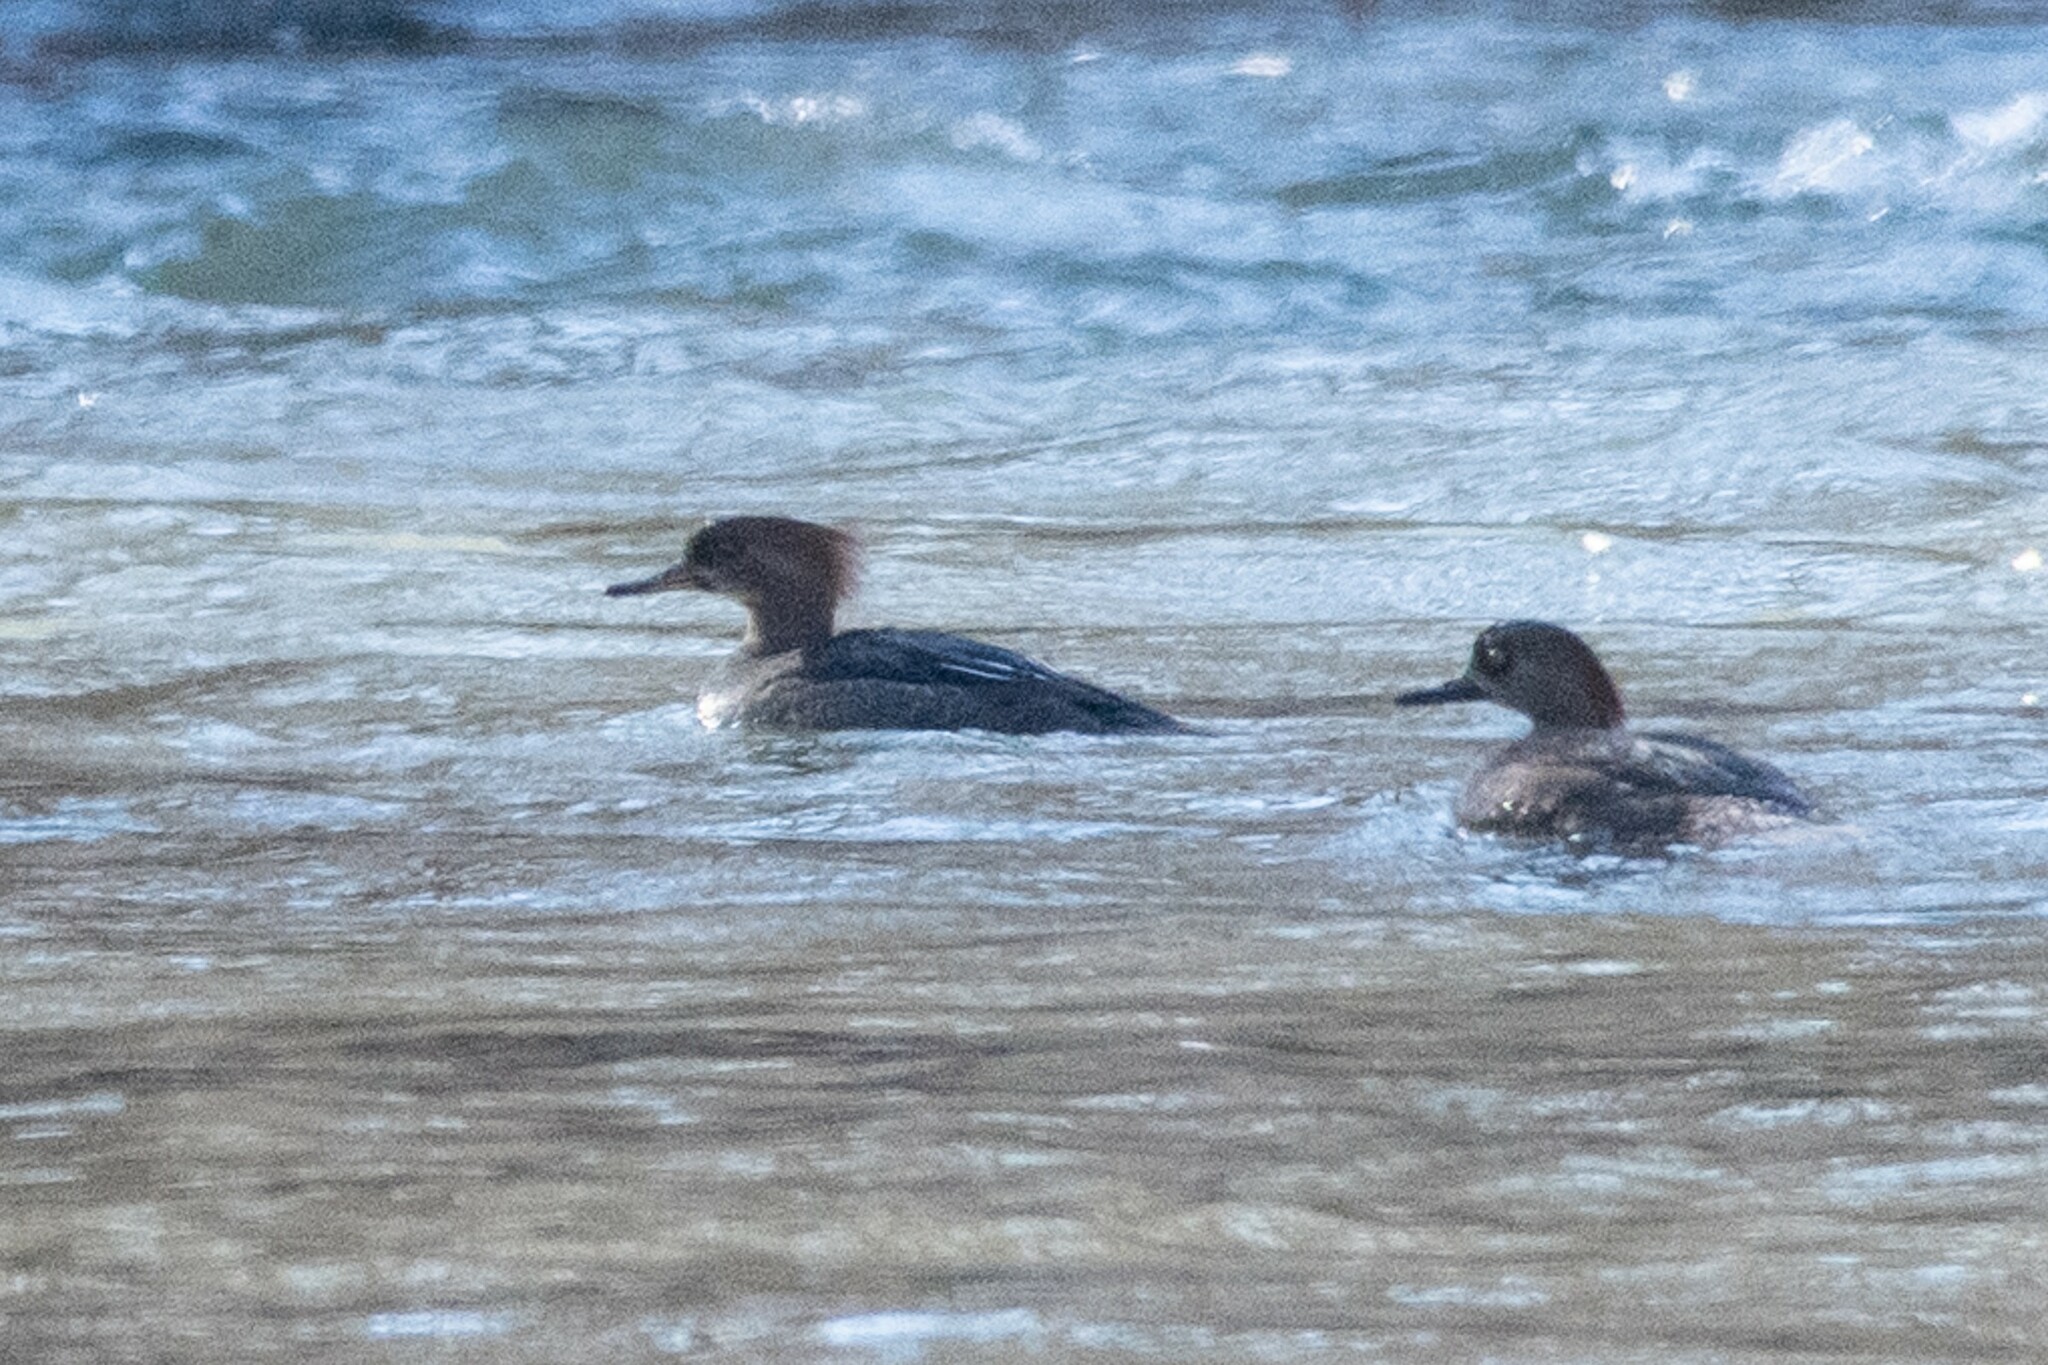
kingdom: Animalia
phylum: Chordata
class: Aves
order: Anseriformes
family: Anatidae
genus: Lophodytes
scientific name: Lophodytes cucullatus
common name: Hooded merganser
